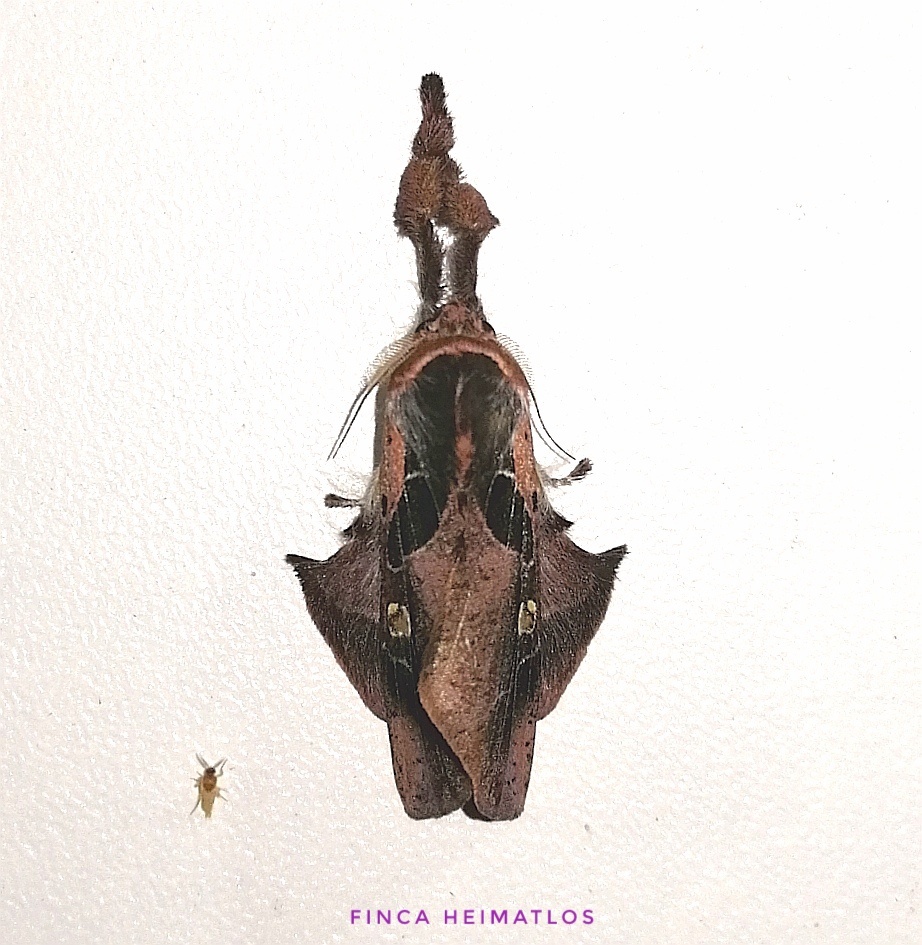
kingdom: Animalia
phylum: Arthropoda
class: Insecta
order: Lepidoptera
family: Erebidae
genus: Desmoloma
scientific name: Desmoloma signata
